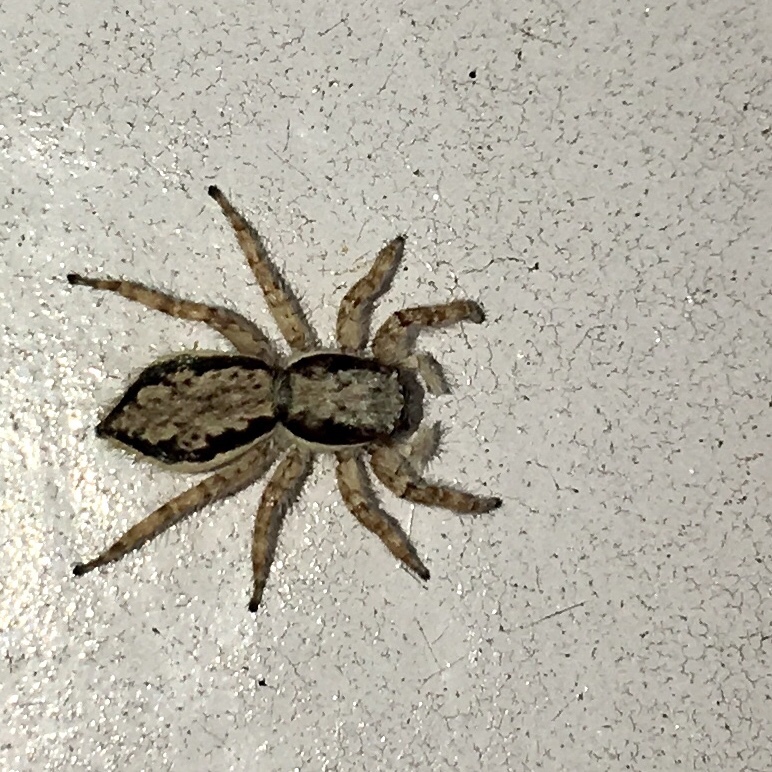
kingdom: Animalia
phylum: Arthropoda
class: Arachnida
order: Araneae
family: Salticidae
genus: Menemerus
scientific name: Menemerus bivittatus
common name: Gray wall jumper
